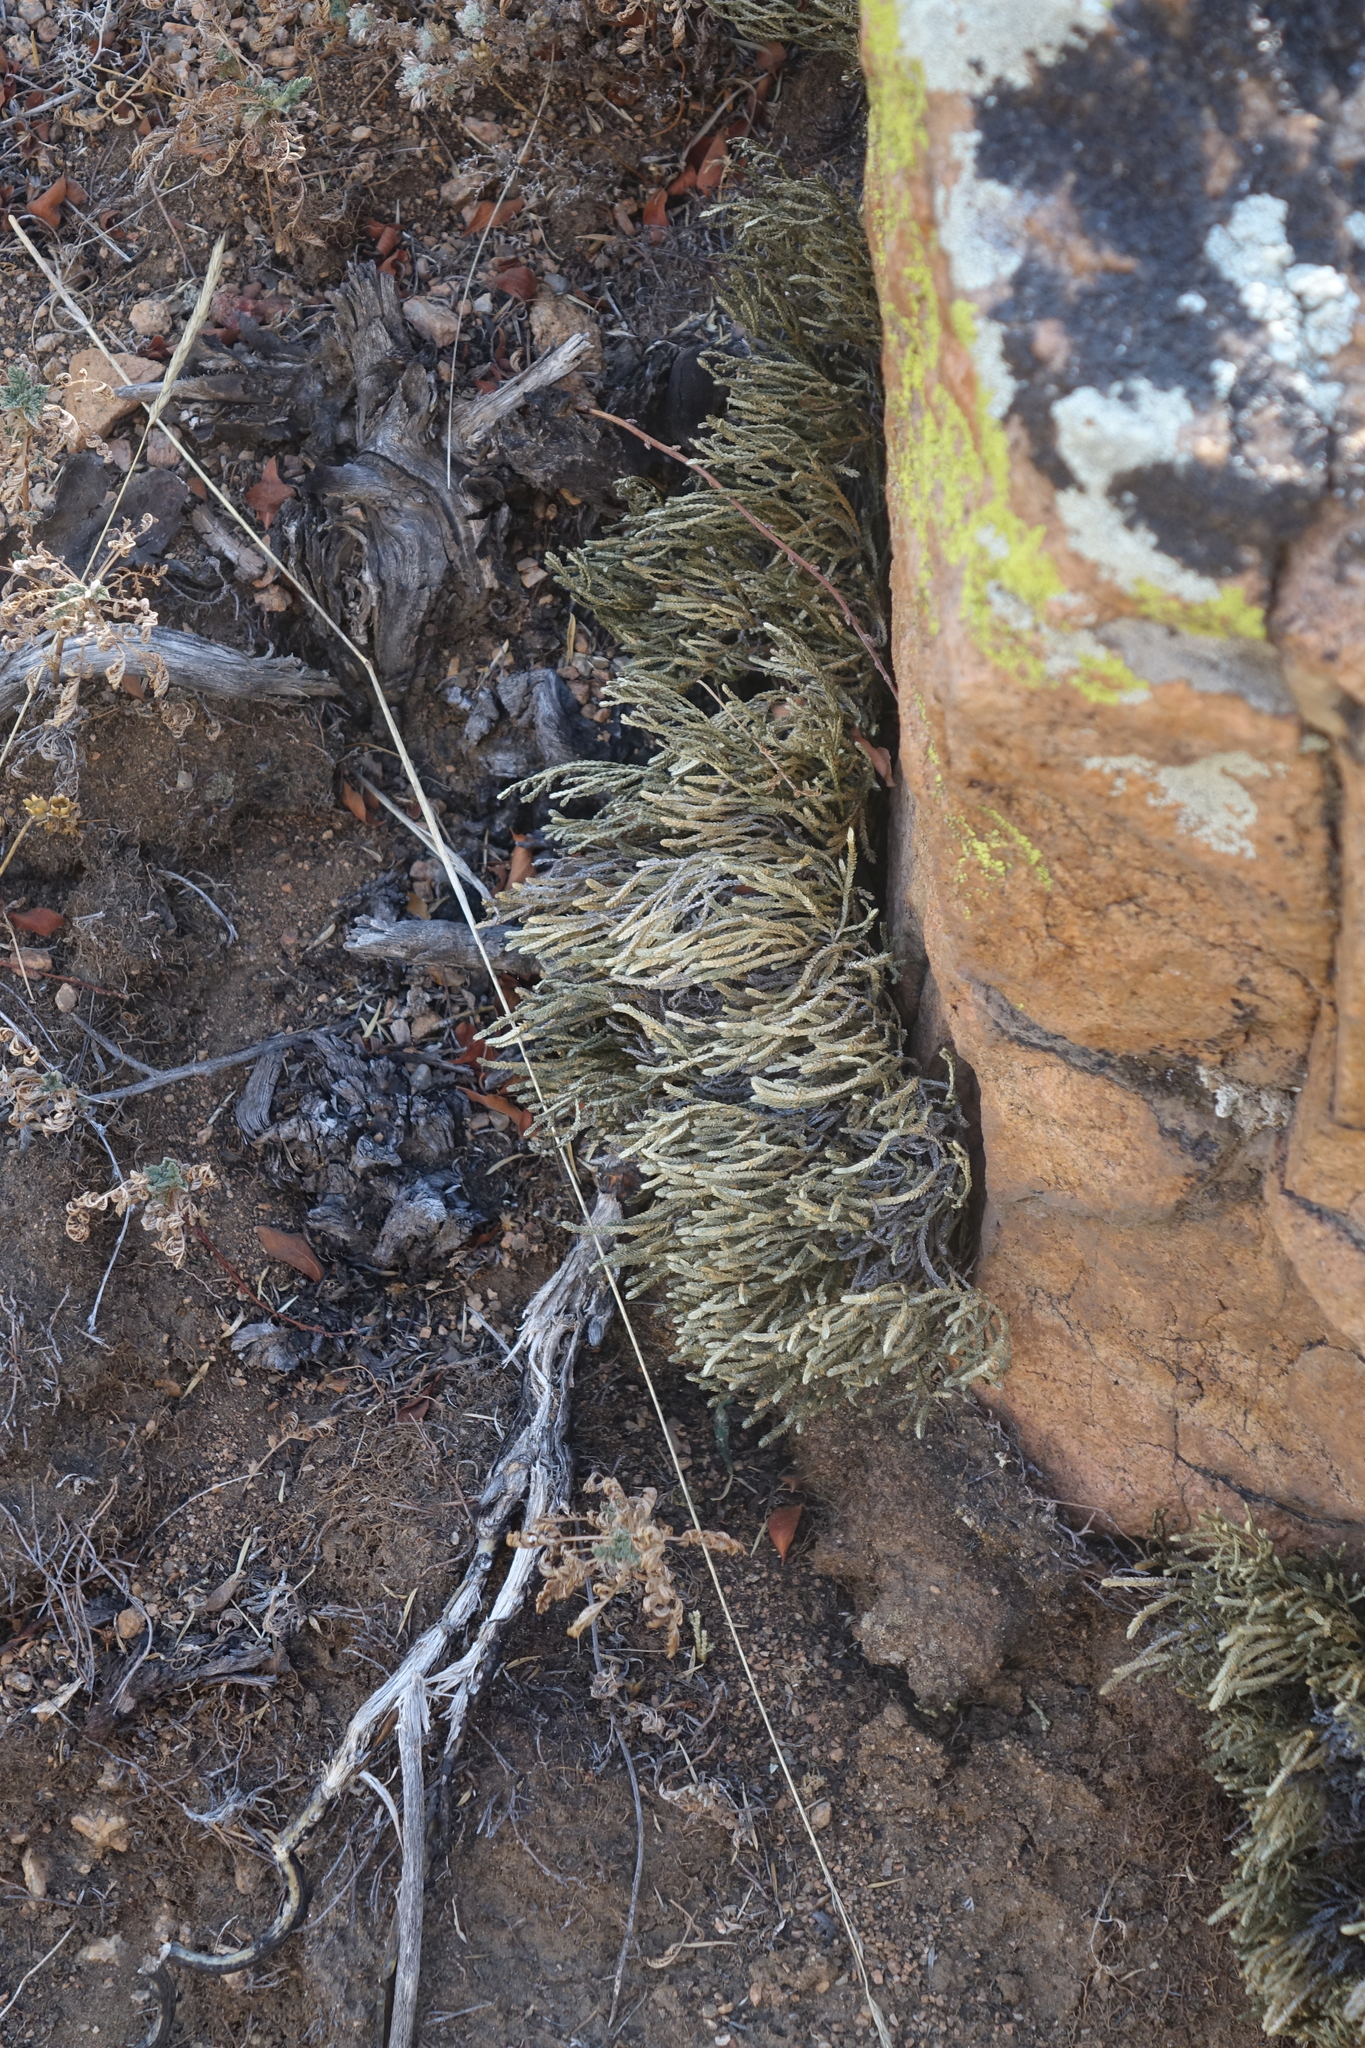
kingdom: Plantae
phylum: Tracheophyta
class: Lycopodiopsida
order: Selaginellales
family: Selaginellaceae
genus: Selaginella
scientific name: Selaginella sanguinolenta
